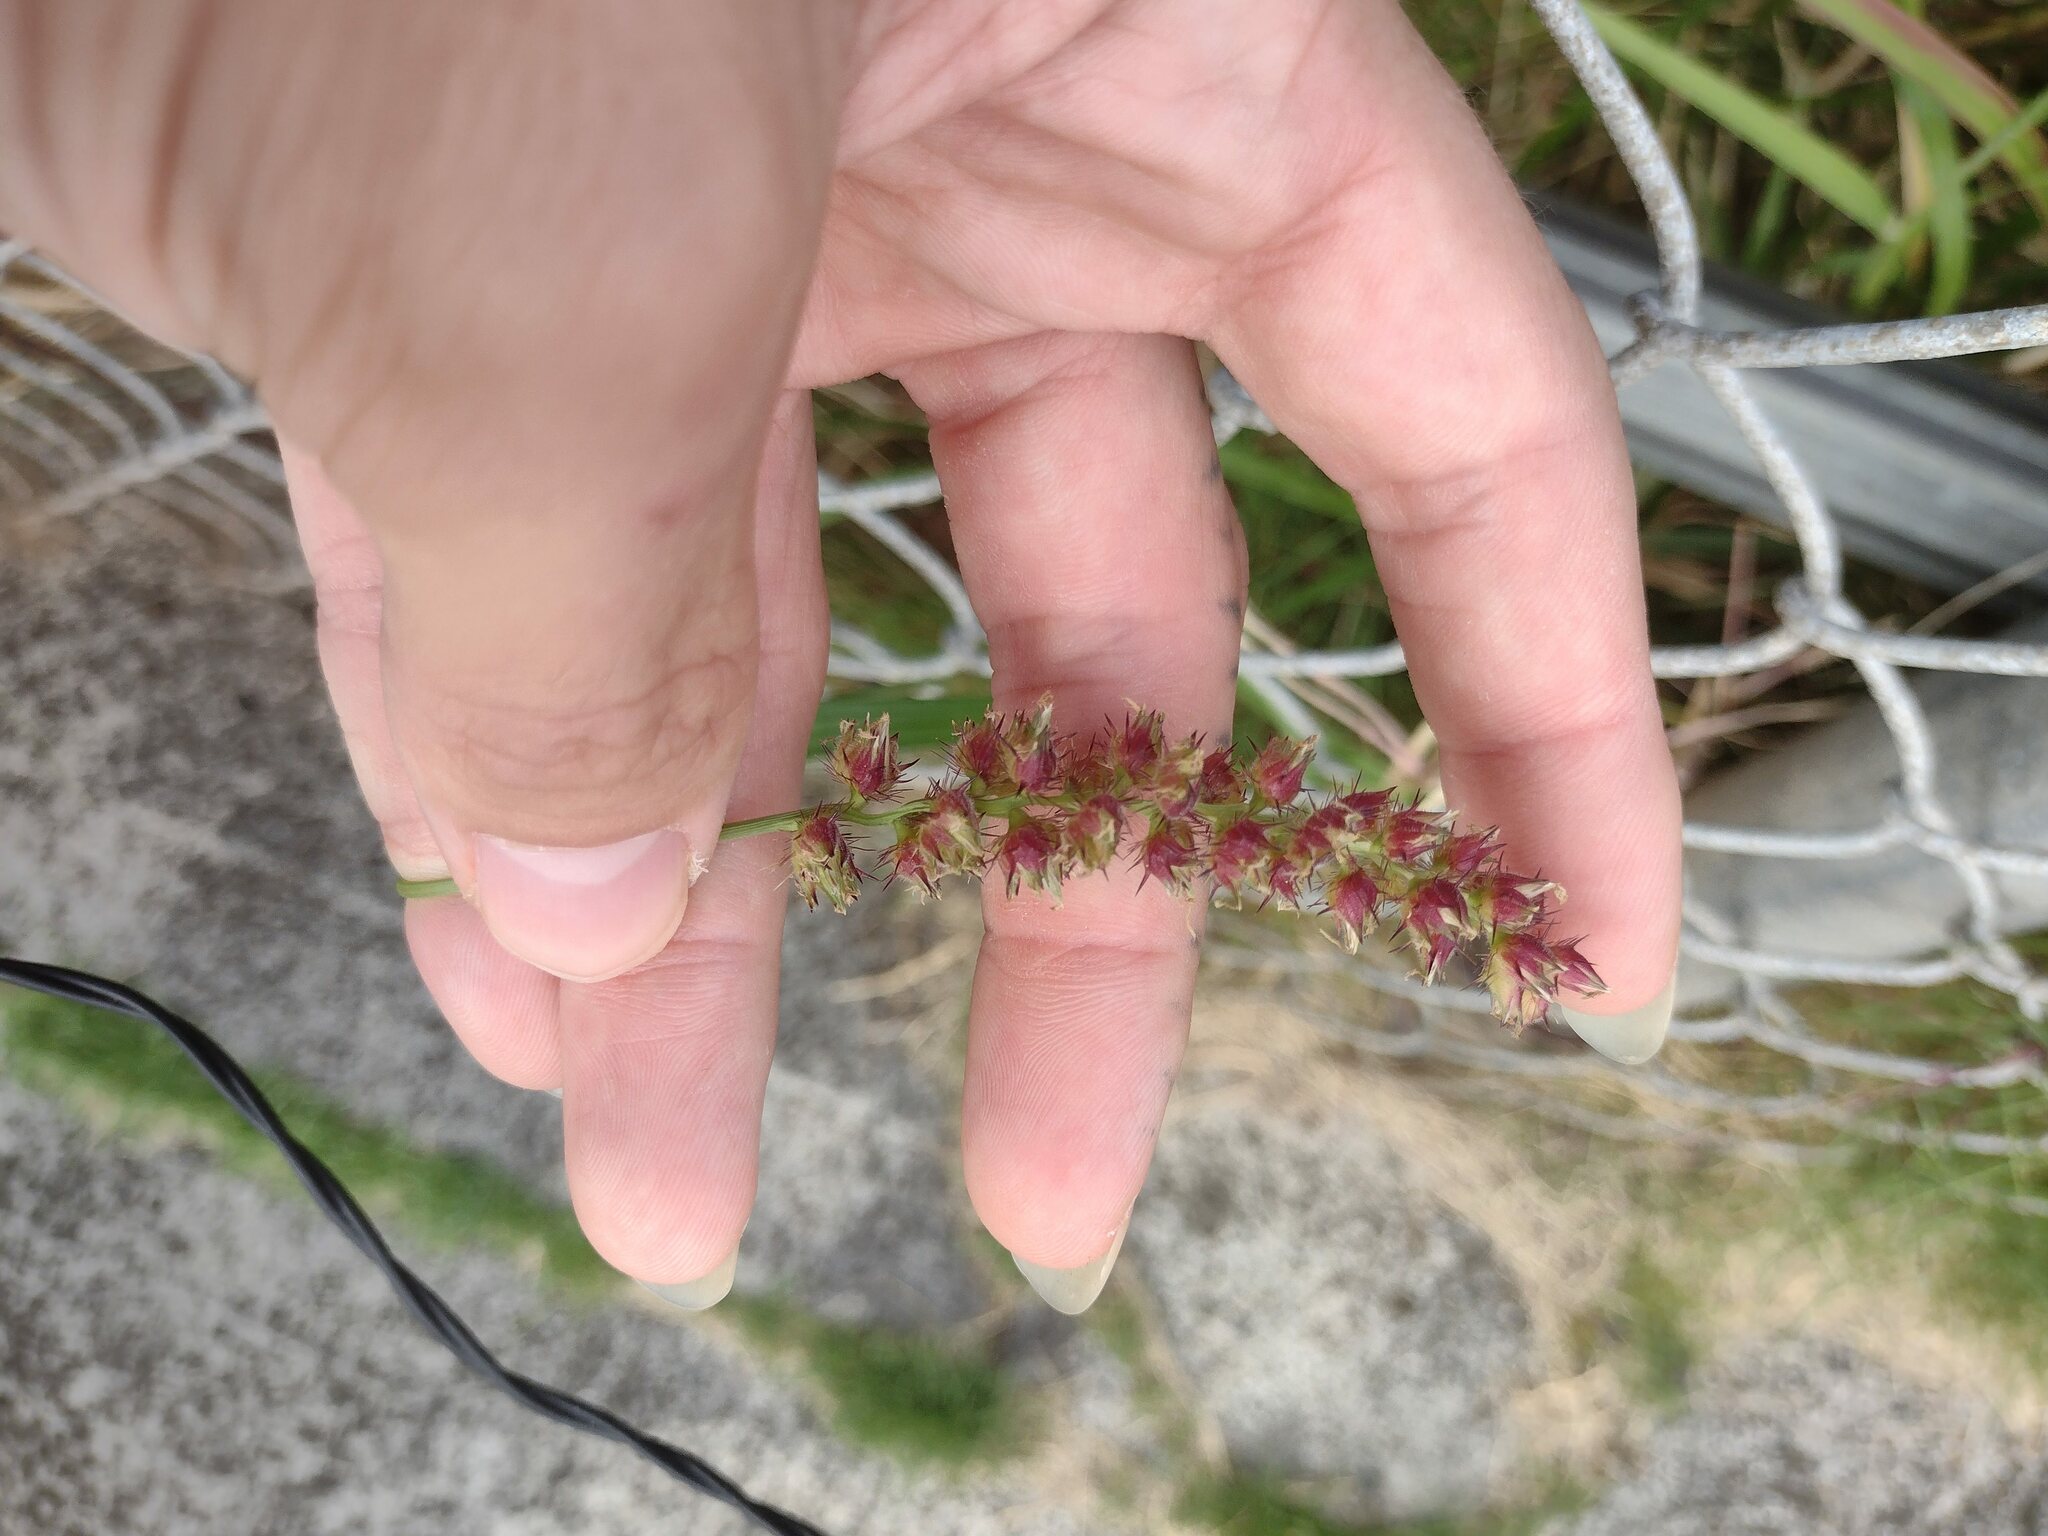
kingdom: Plantae
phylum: Tracheophyta
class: Liliopsida
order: Poales
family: Poaceae
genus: Cenchrus
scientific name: Cenchrus echinatus
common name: Southern sandbur
